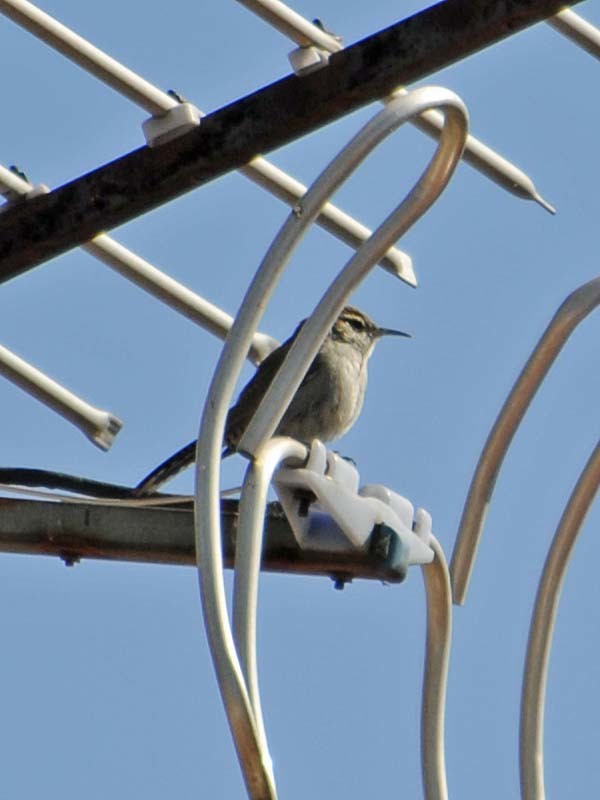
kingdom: Animalia
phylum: Chordata
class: Aves
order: Passeriformes
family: Troglodytidae
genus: Thryomanes
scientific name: Thryomanes bewickii
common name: Bewick's wren
